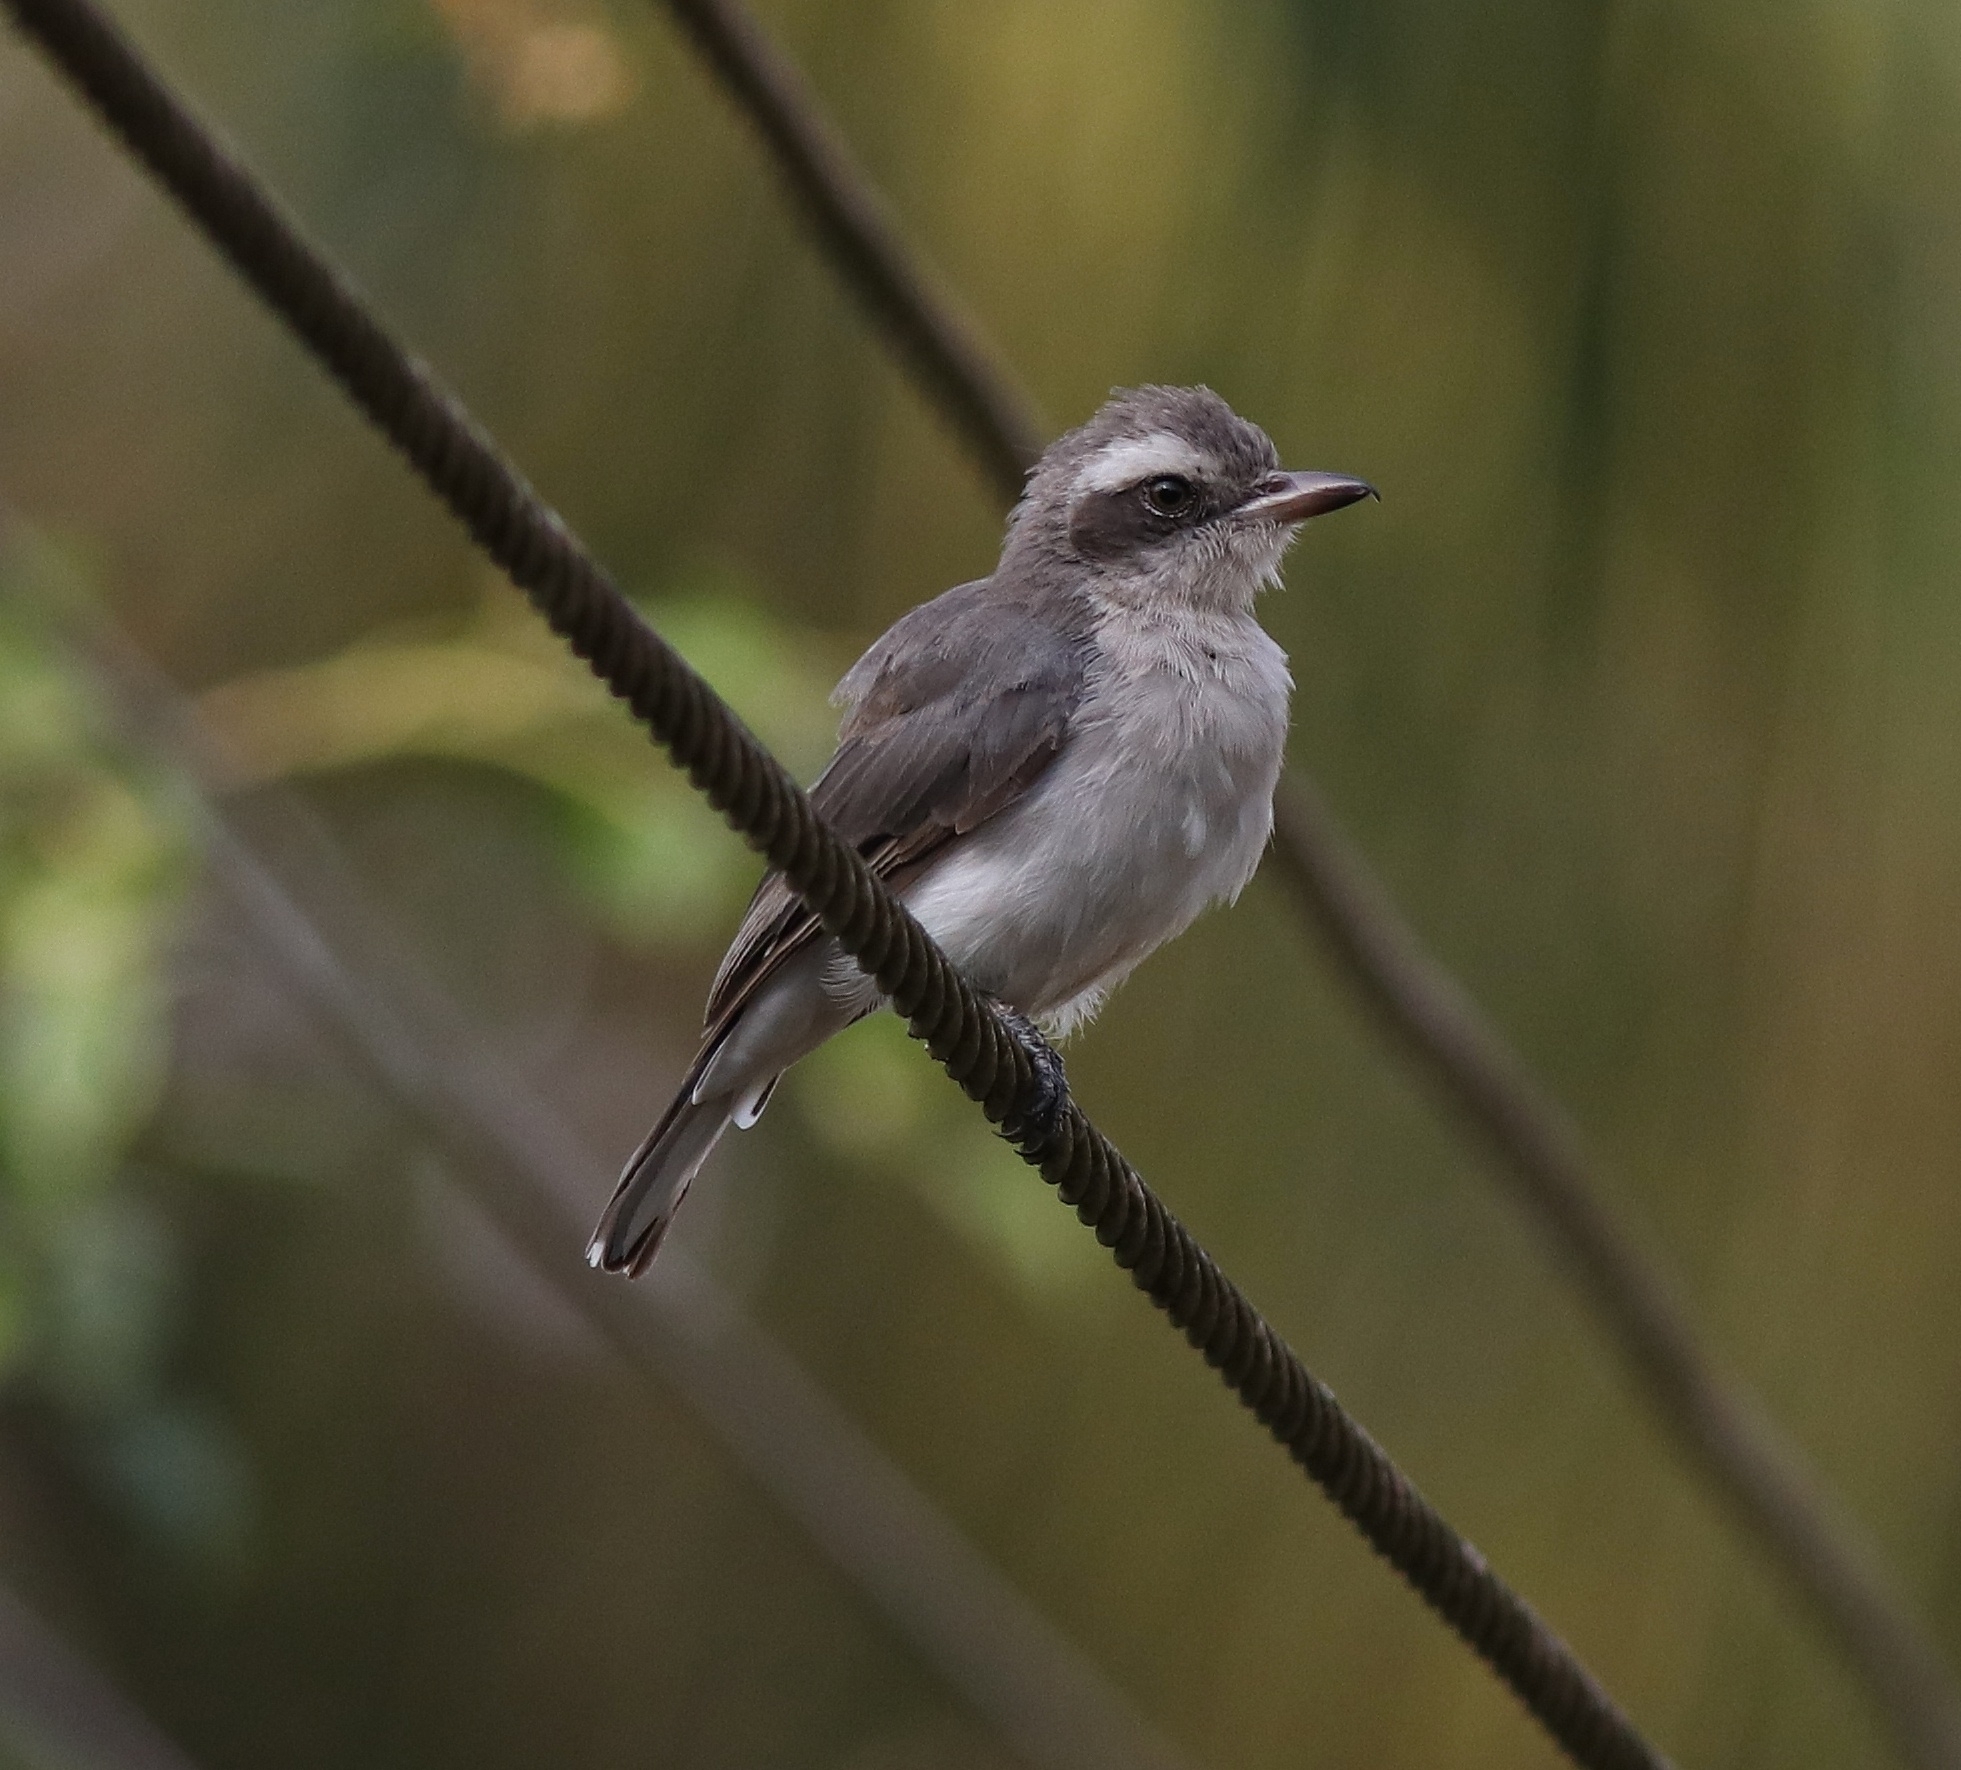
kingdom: Animalia
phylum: Chordata
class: Aves
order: Passeriformes
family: Tephrodornithidae
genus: Tephrodornis
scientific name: Tephrodornis pondicerianus
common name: Common woodshrike
